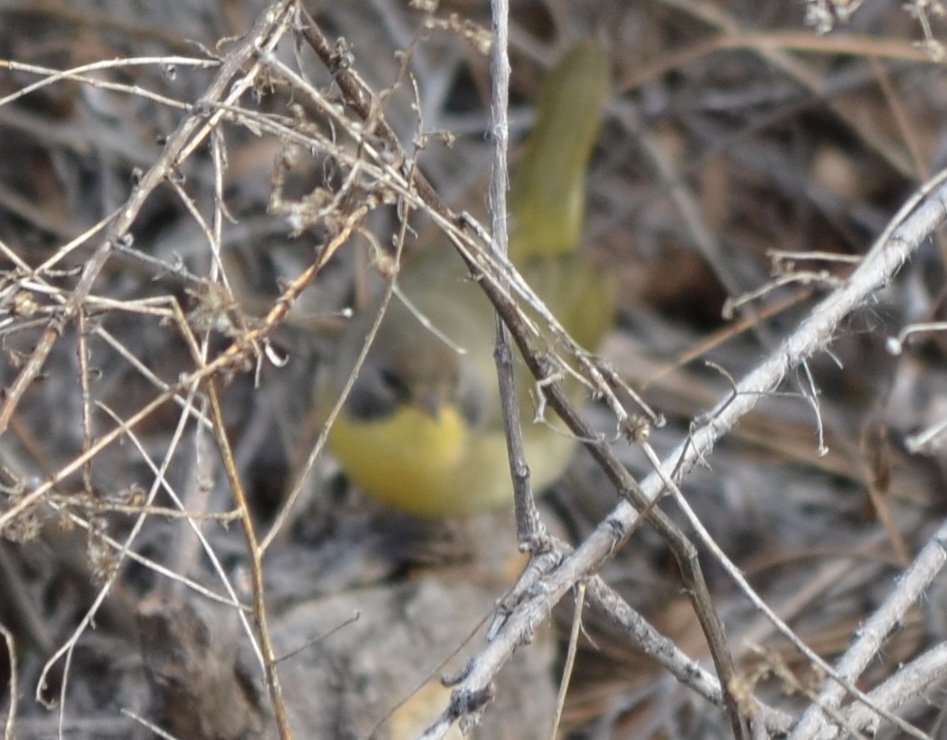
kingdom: Animalia
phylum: Chordata
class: Aves
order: Passeriformes
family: Parulidae
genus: Geothlypis
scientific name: Geothlypis trichas
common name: Common yellowthroat
